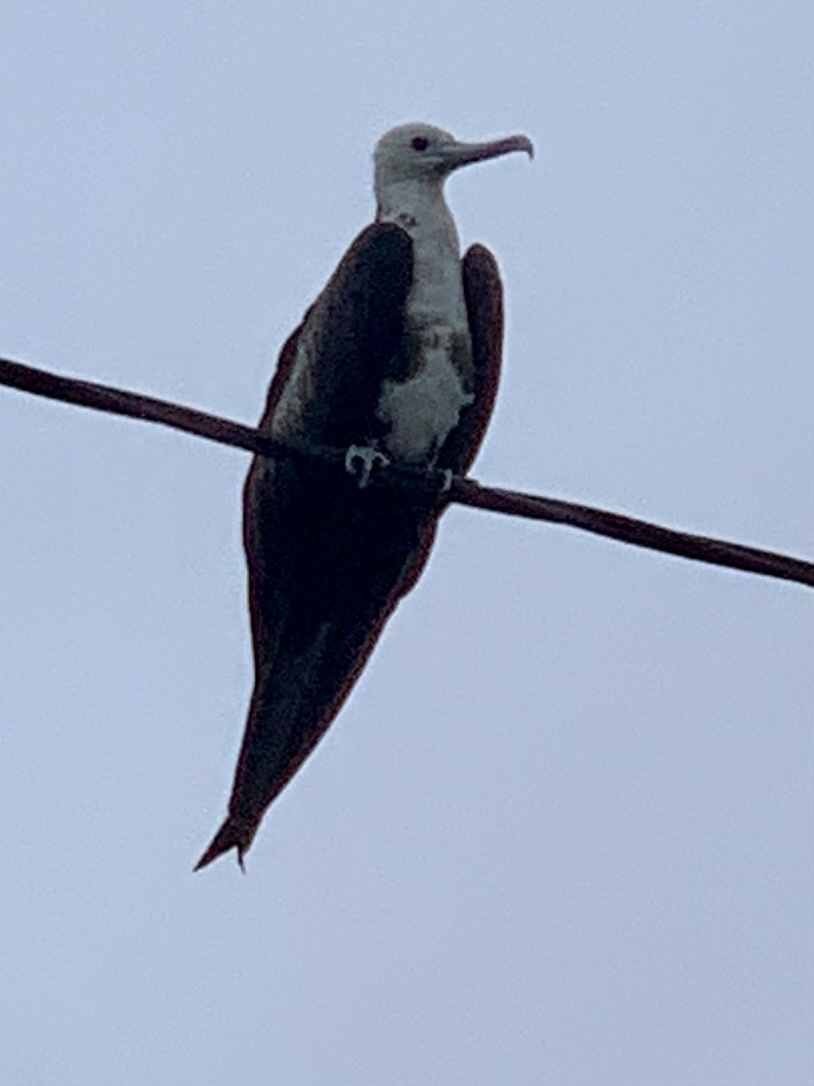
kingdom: Animalia
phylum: Chordata
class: Aves
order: Suliformes
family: Fregatidae
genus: Fregata
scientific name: Fregata magnificens
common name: Magnificent frigatebird
